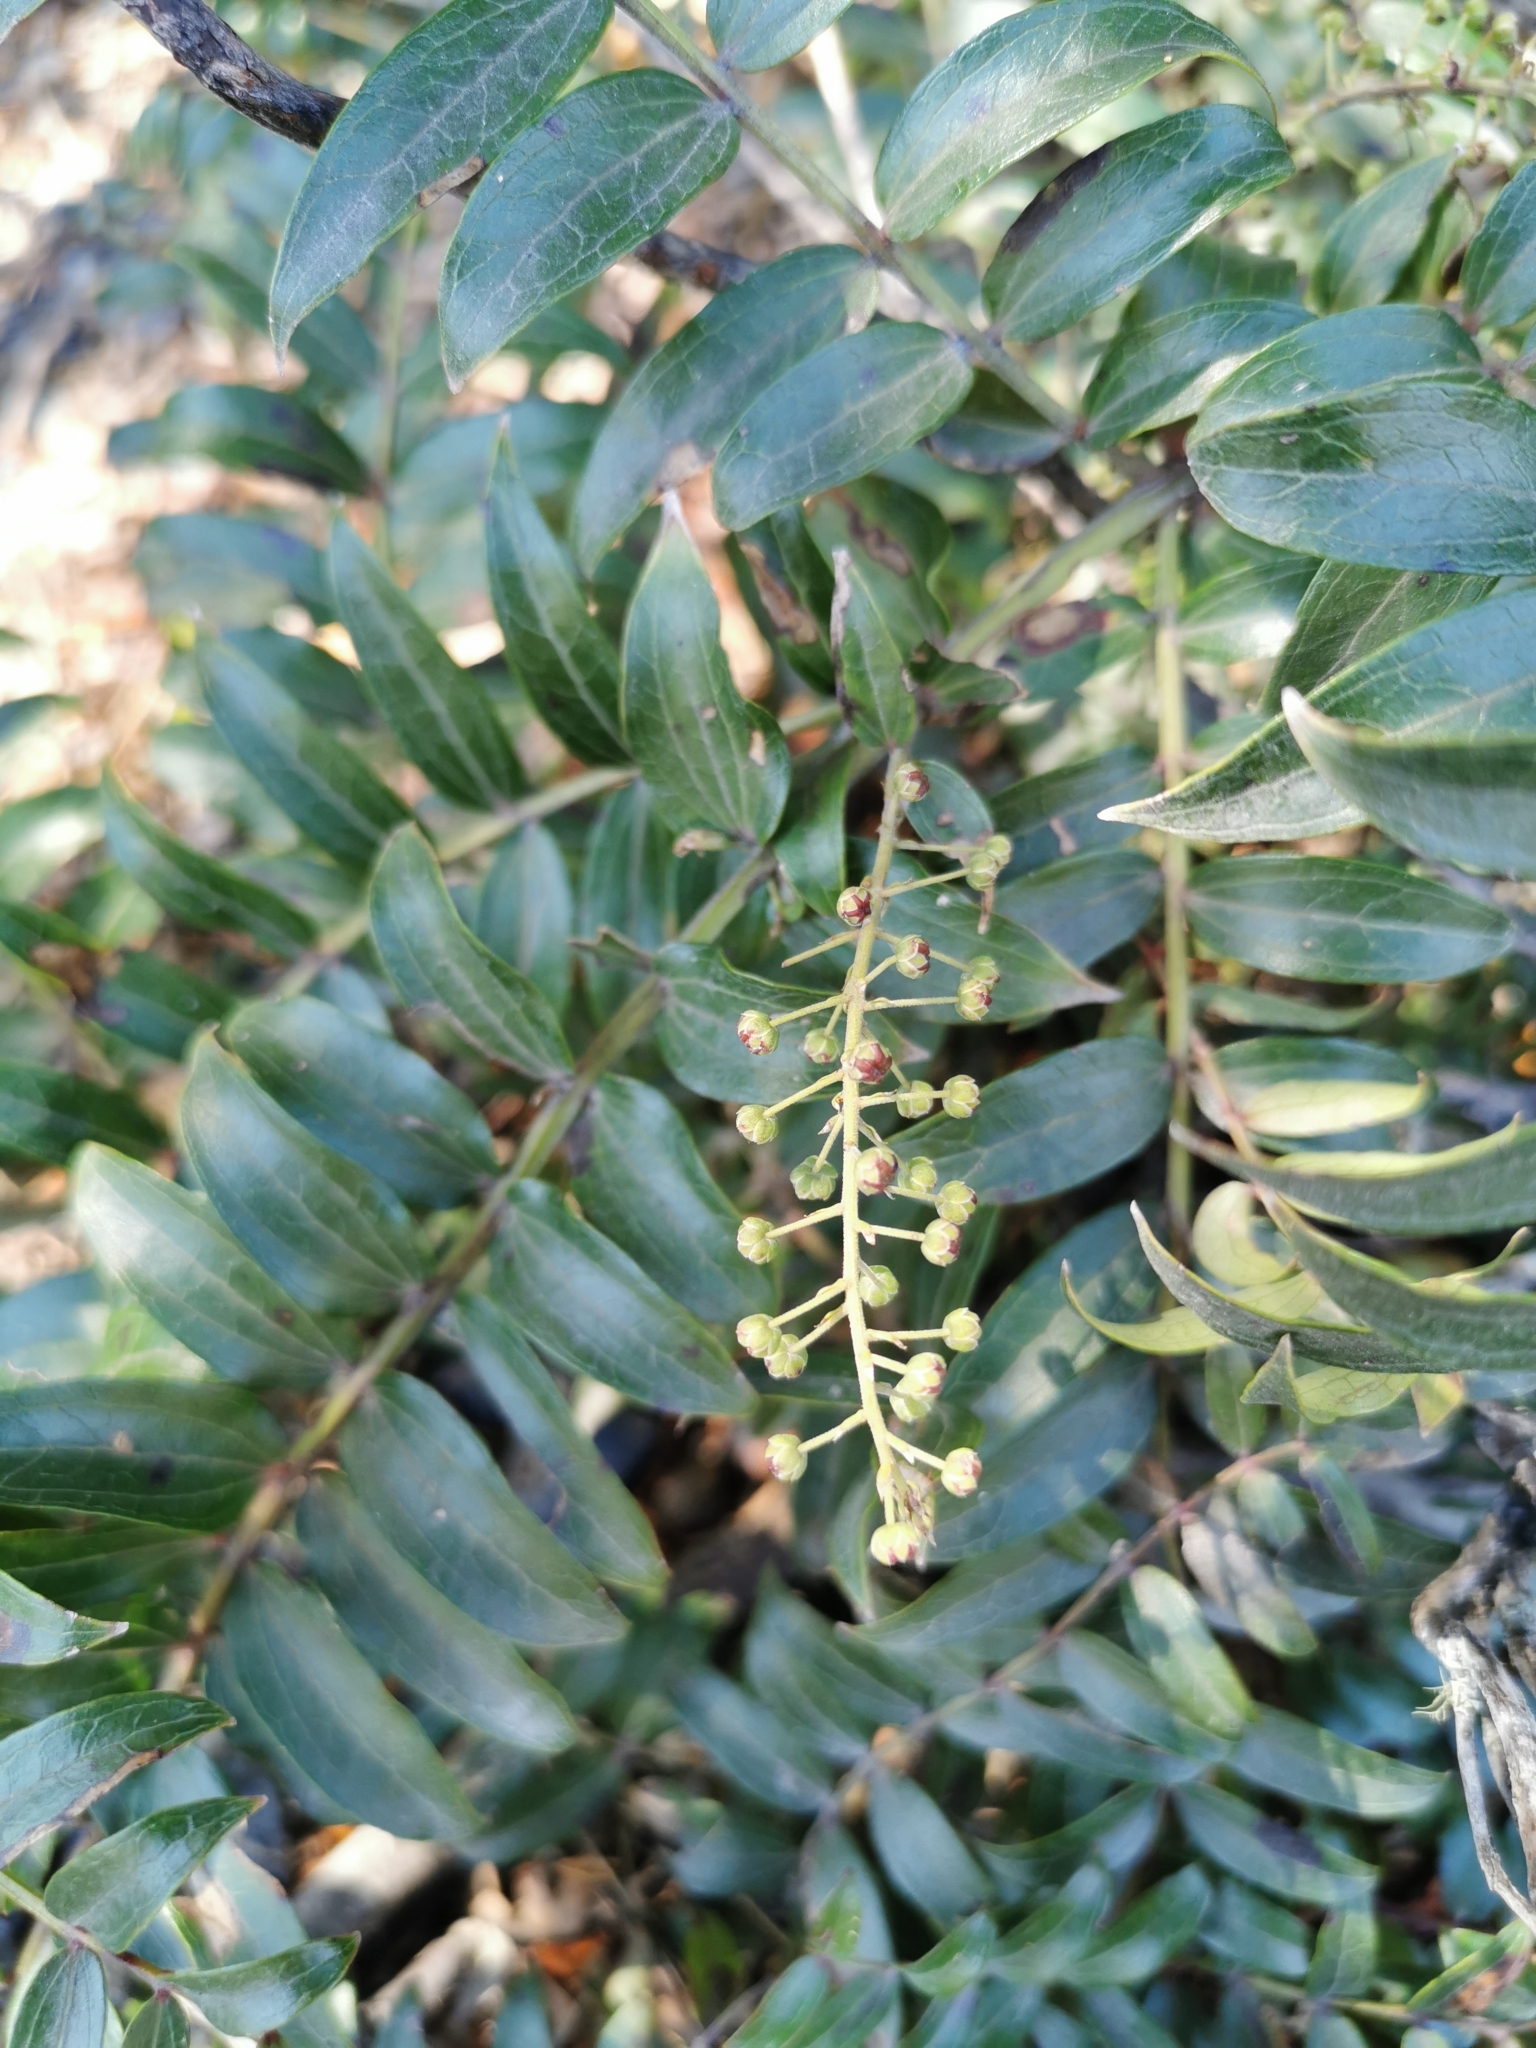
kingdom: Plantae
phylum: Tracheophyta
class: Magnoliopsida
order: Cucurbitales
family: Coriariaceae
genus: Coriaria
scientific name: Coriaria pteridoides
